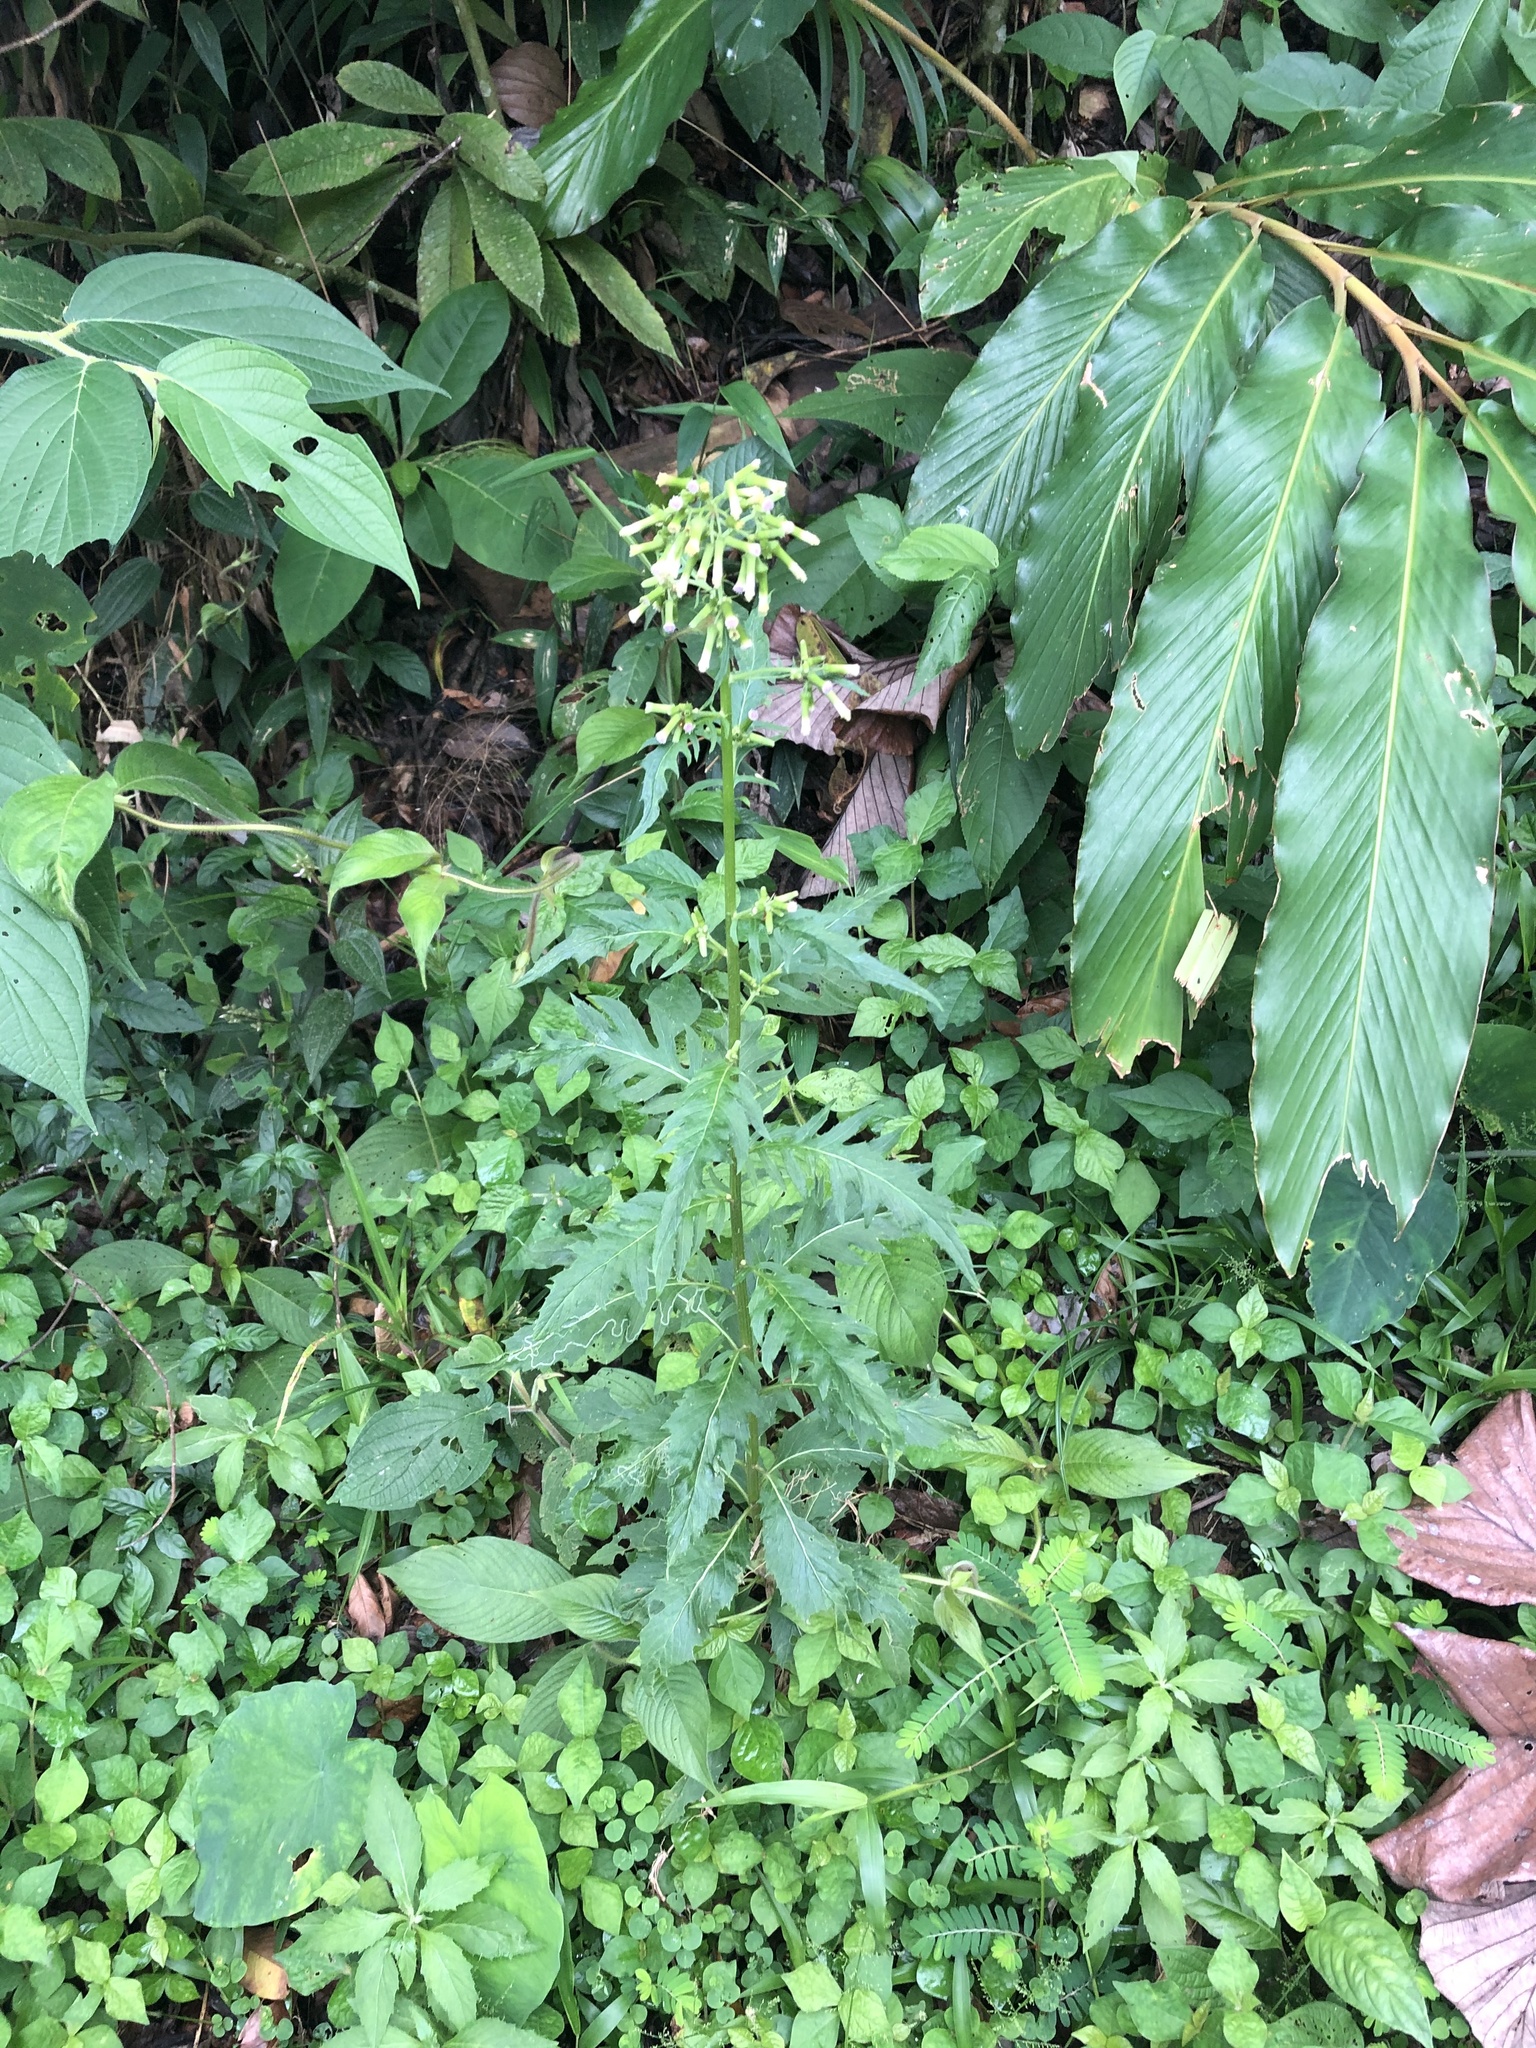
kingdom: Plantae
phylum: Tracheophyta
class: Magnoliopsida
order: Asterales
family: Asteraceae
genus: Erechtites
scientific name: Erechtites valerianifolius
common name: Tropical burnweed
